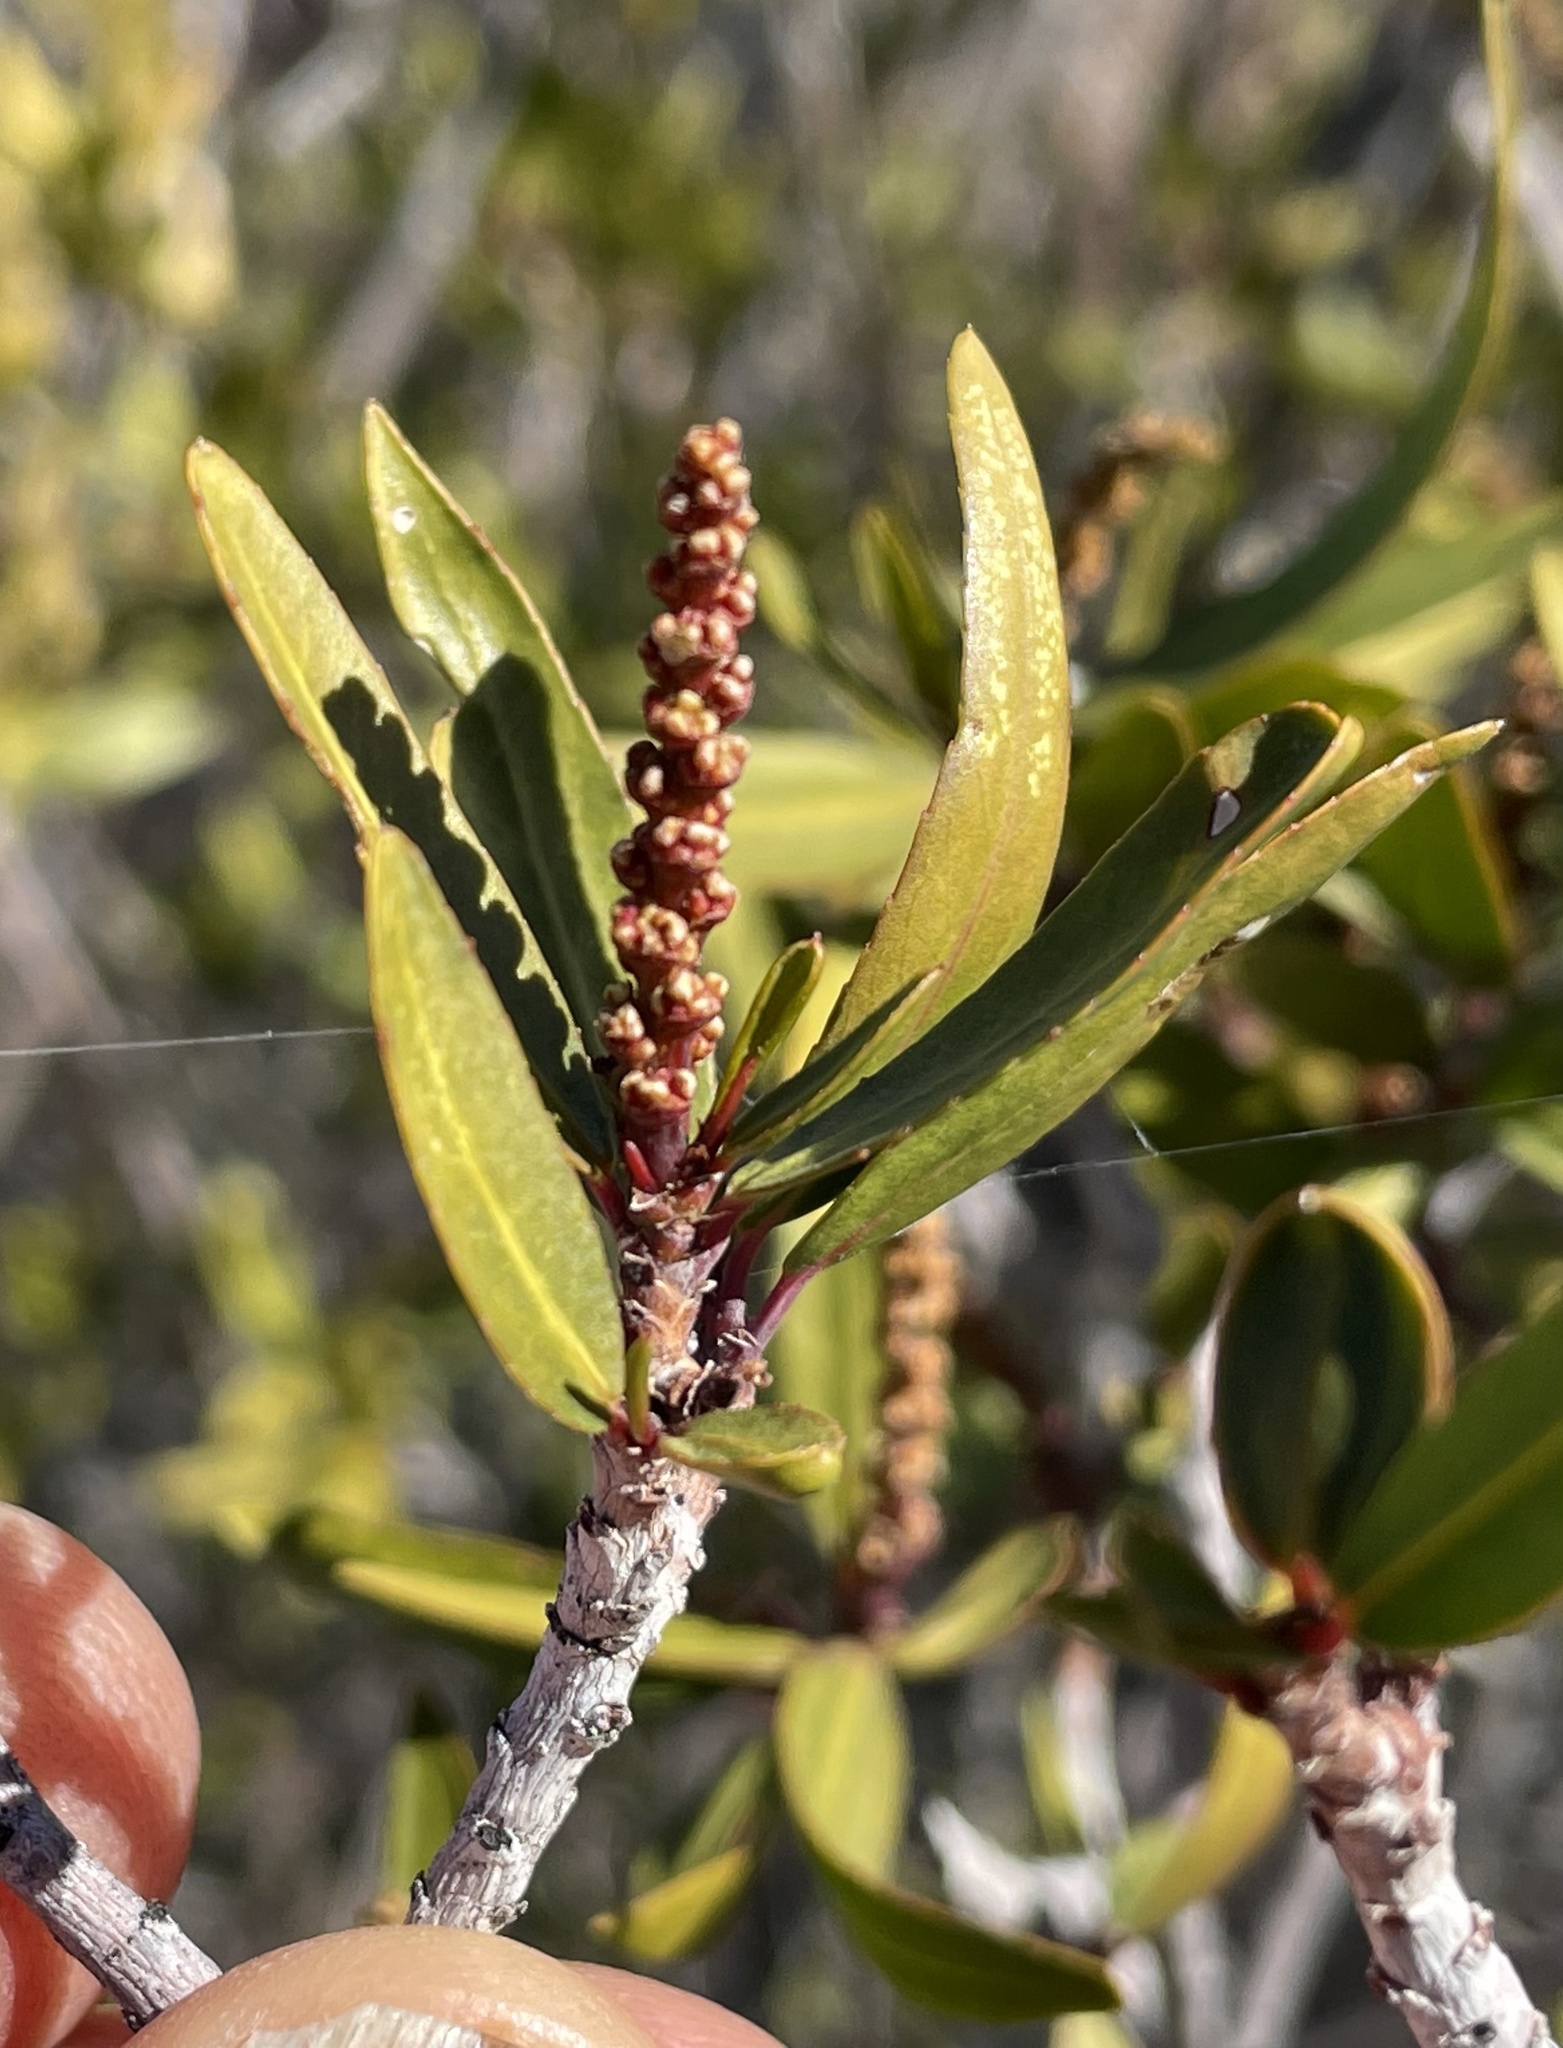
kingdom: Plantae
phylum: Tracheophyta
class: Magnoliopsida
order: Malpighiales
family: Euphorbiaceae
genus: Pleradenophora
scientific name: Pleradenophora bilocularis
